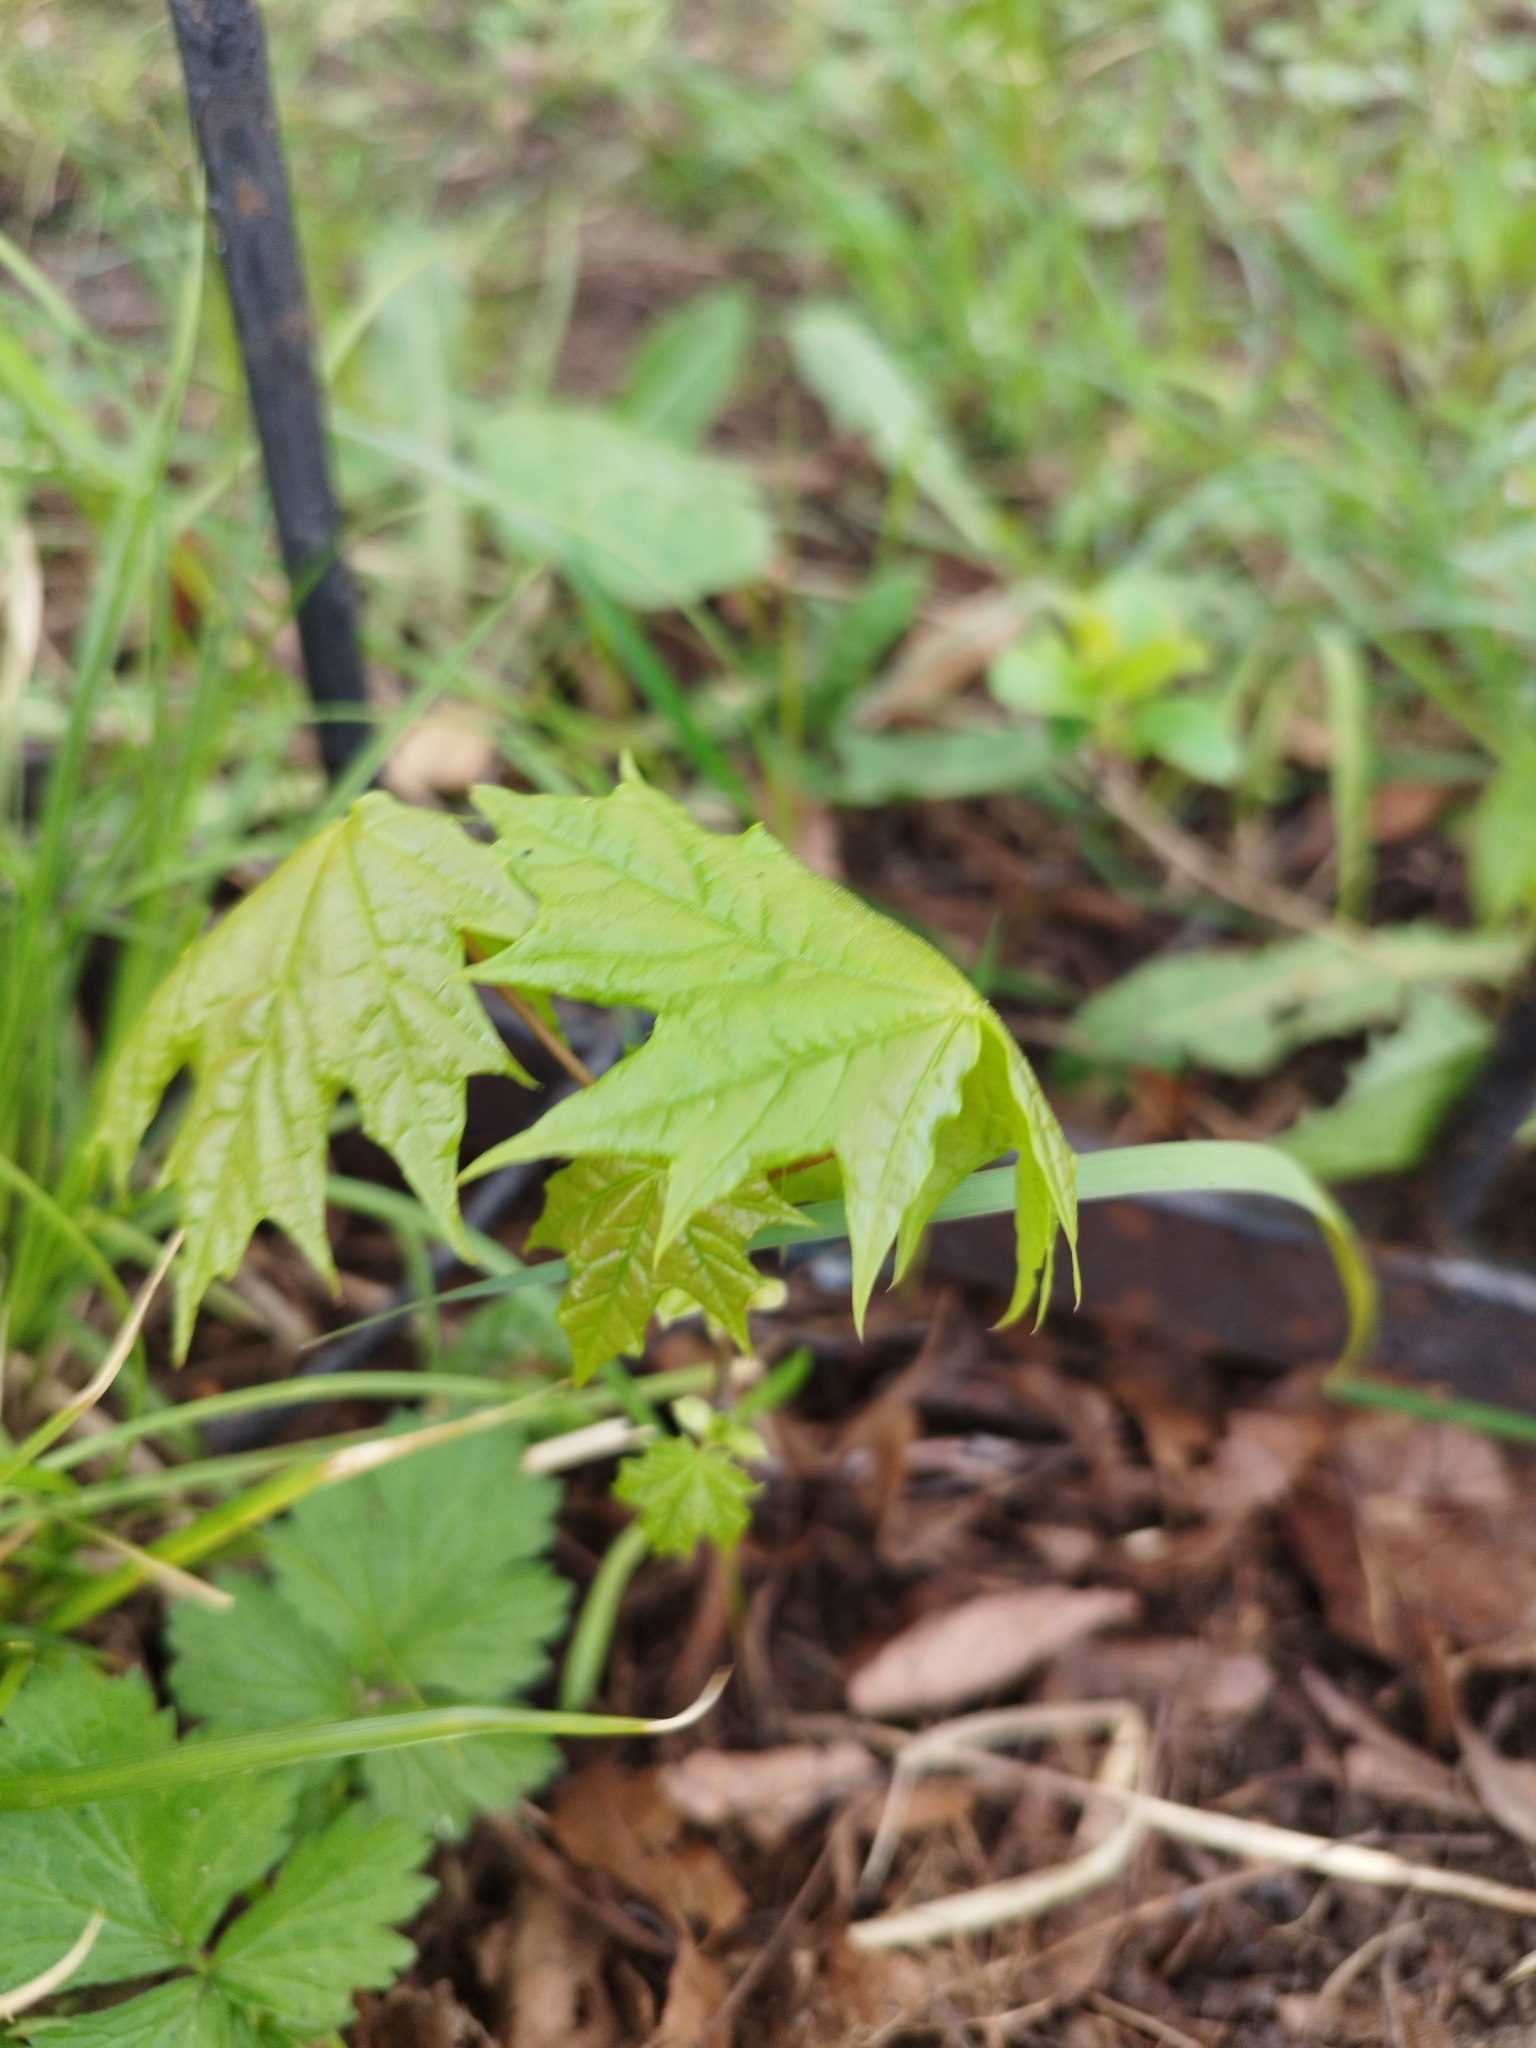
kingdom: Plantae
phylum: Tracheophyta
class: Magnoliopsida
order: Sapindales
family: Sapindaceae
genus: Acer
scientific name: Acer platanoides
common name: Norway maple
